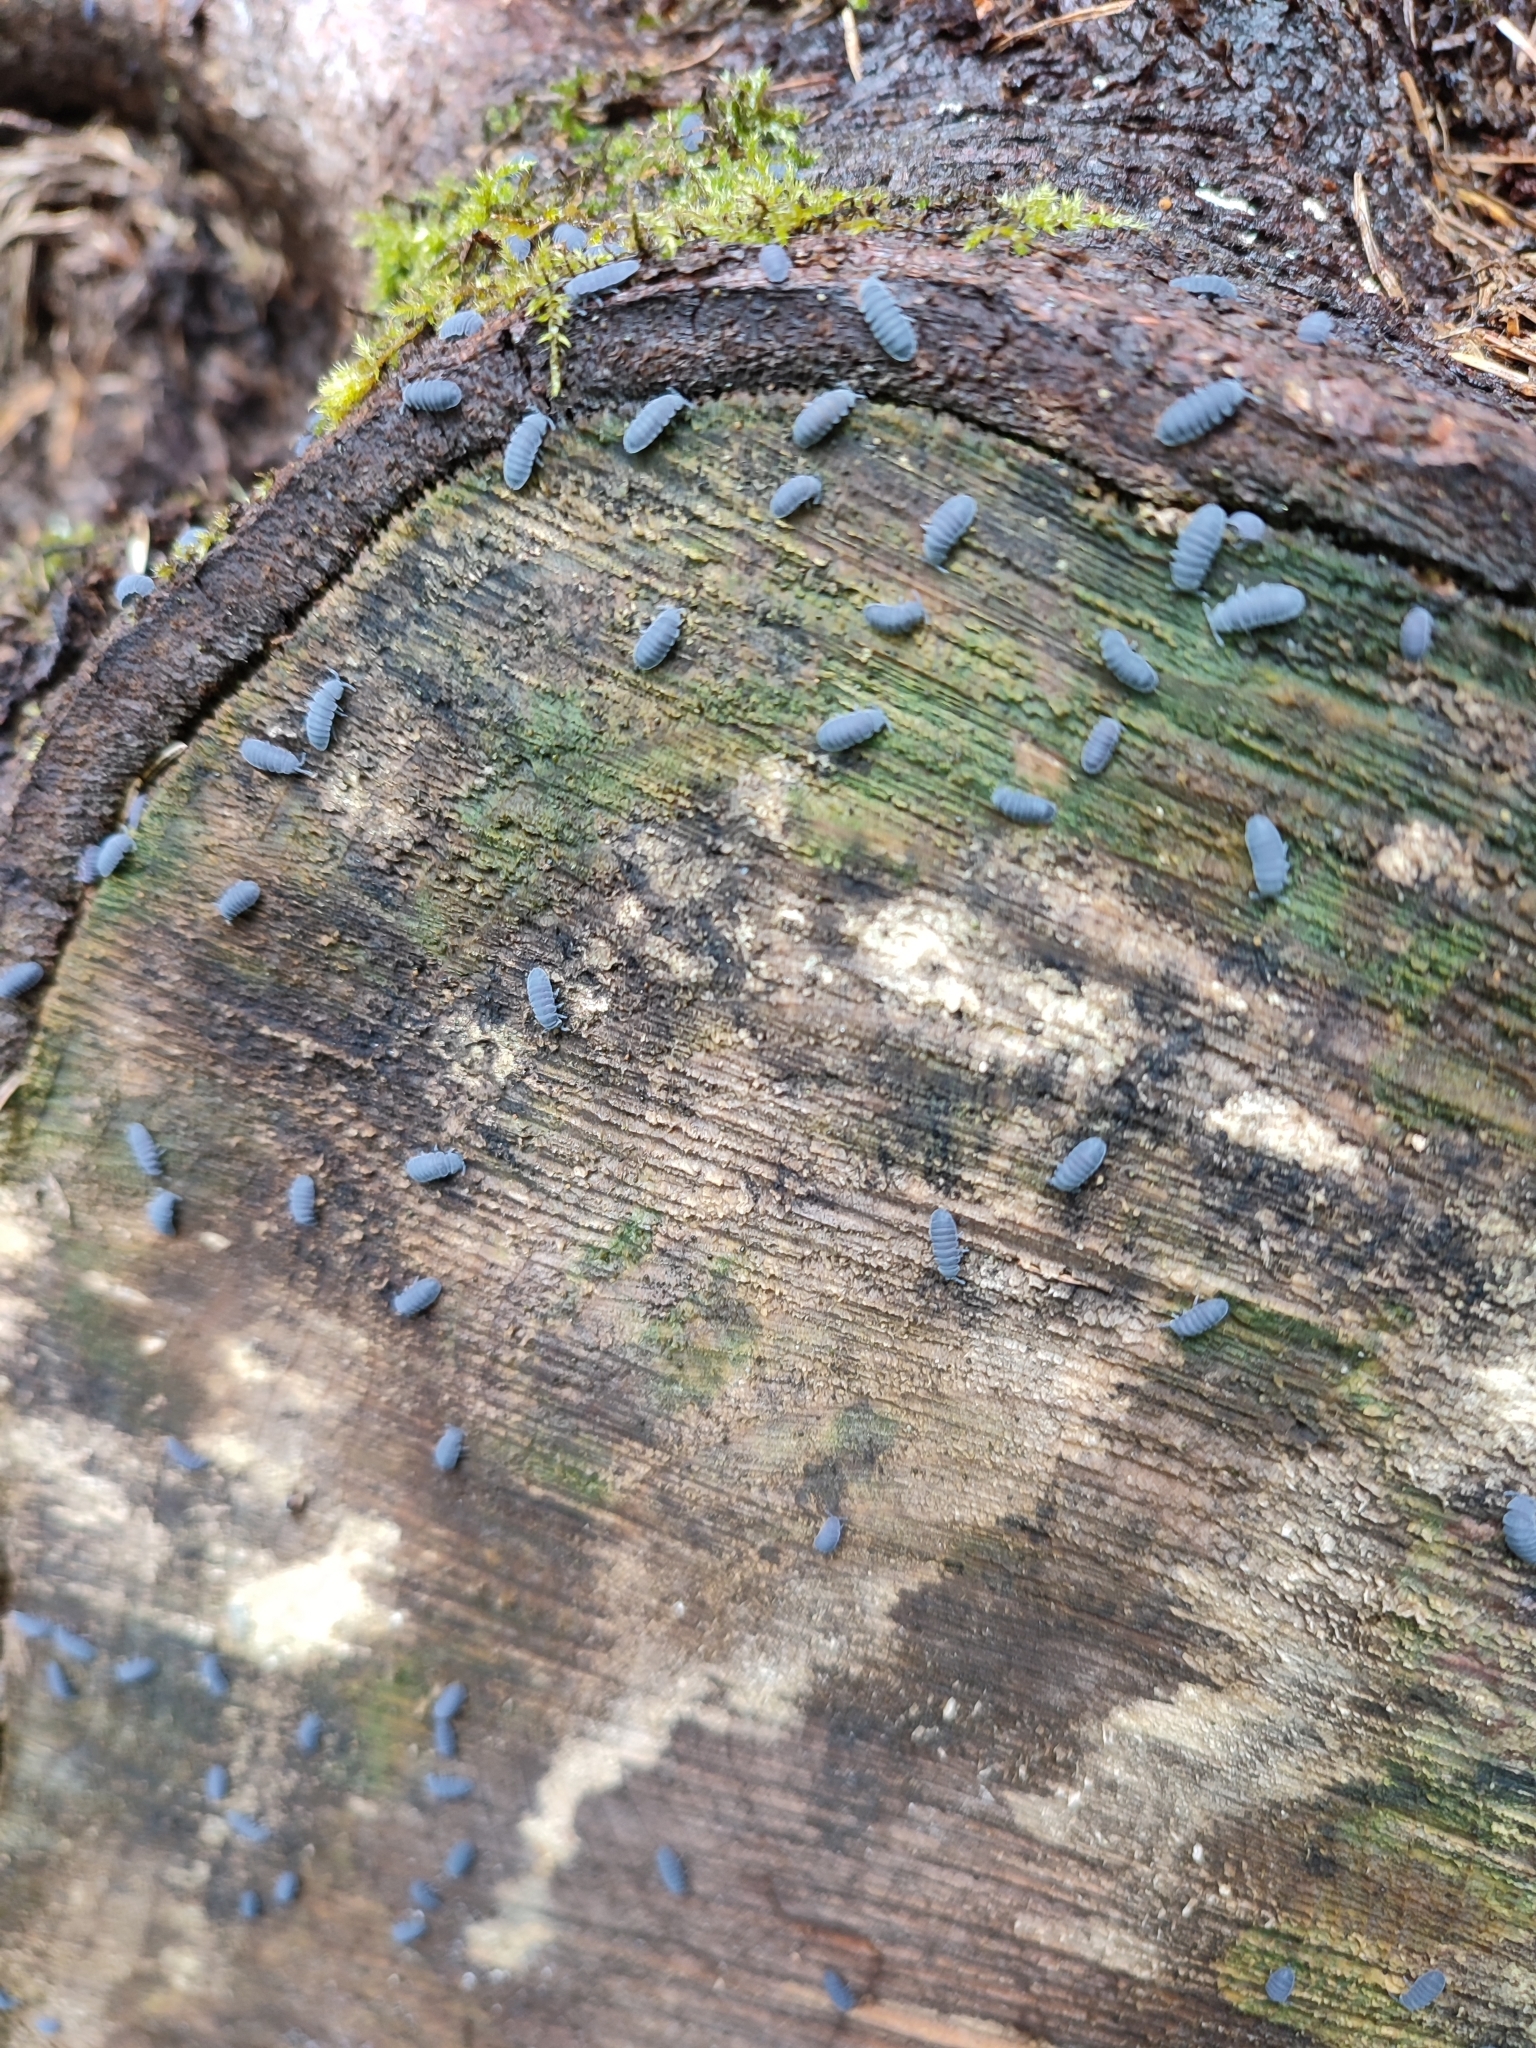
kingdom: Animalia
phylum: Arthropoda
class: Collembola
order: Poduromorpha
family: Onychiuridae
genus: Tetrodontophora
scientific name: Tetrodontophora bielanensis
